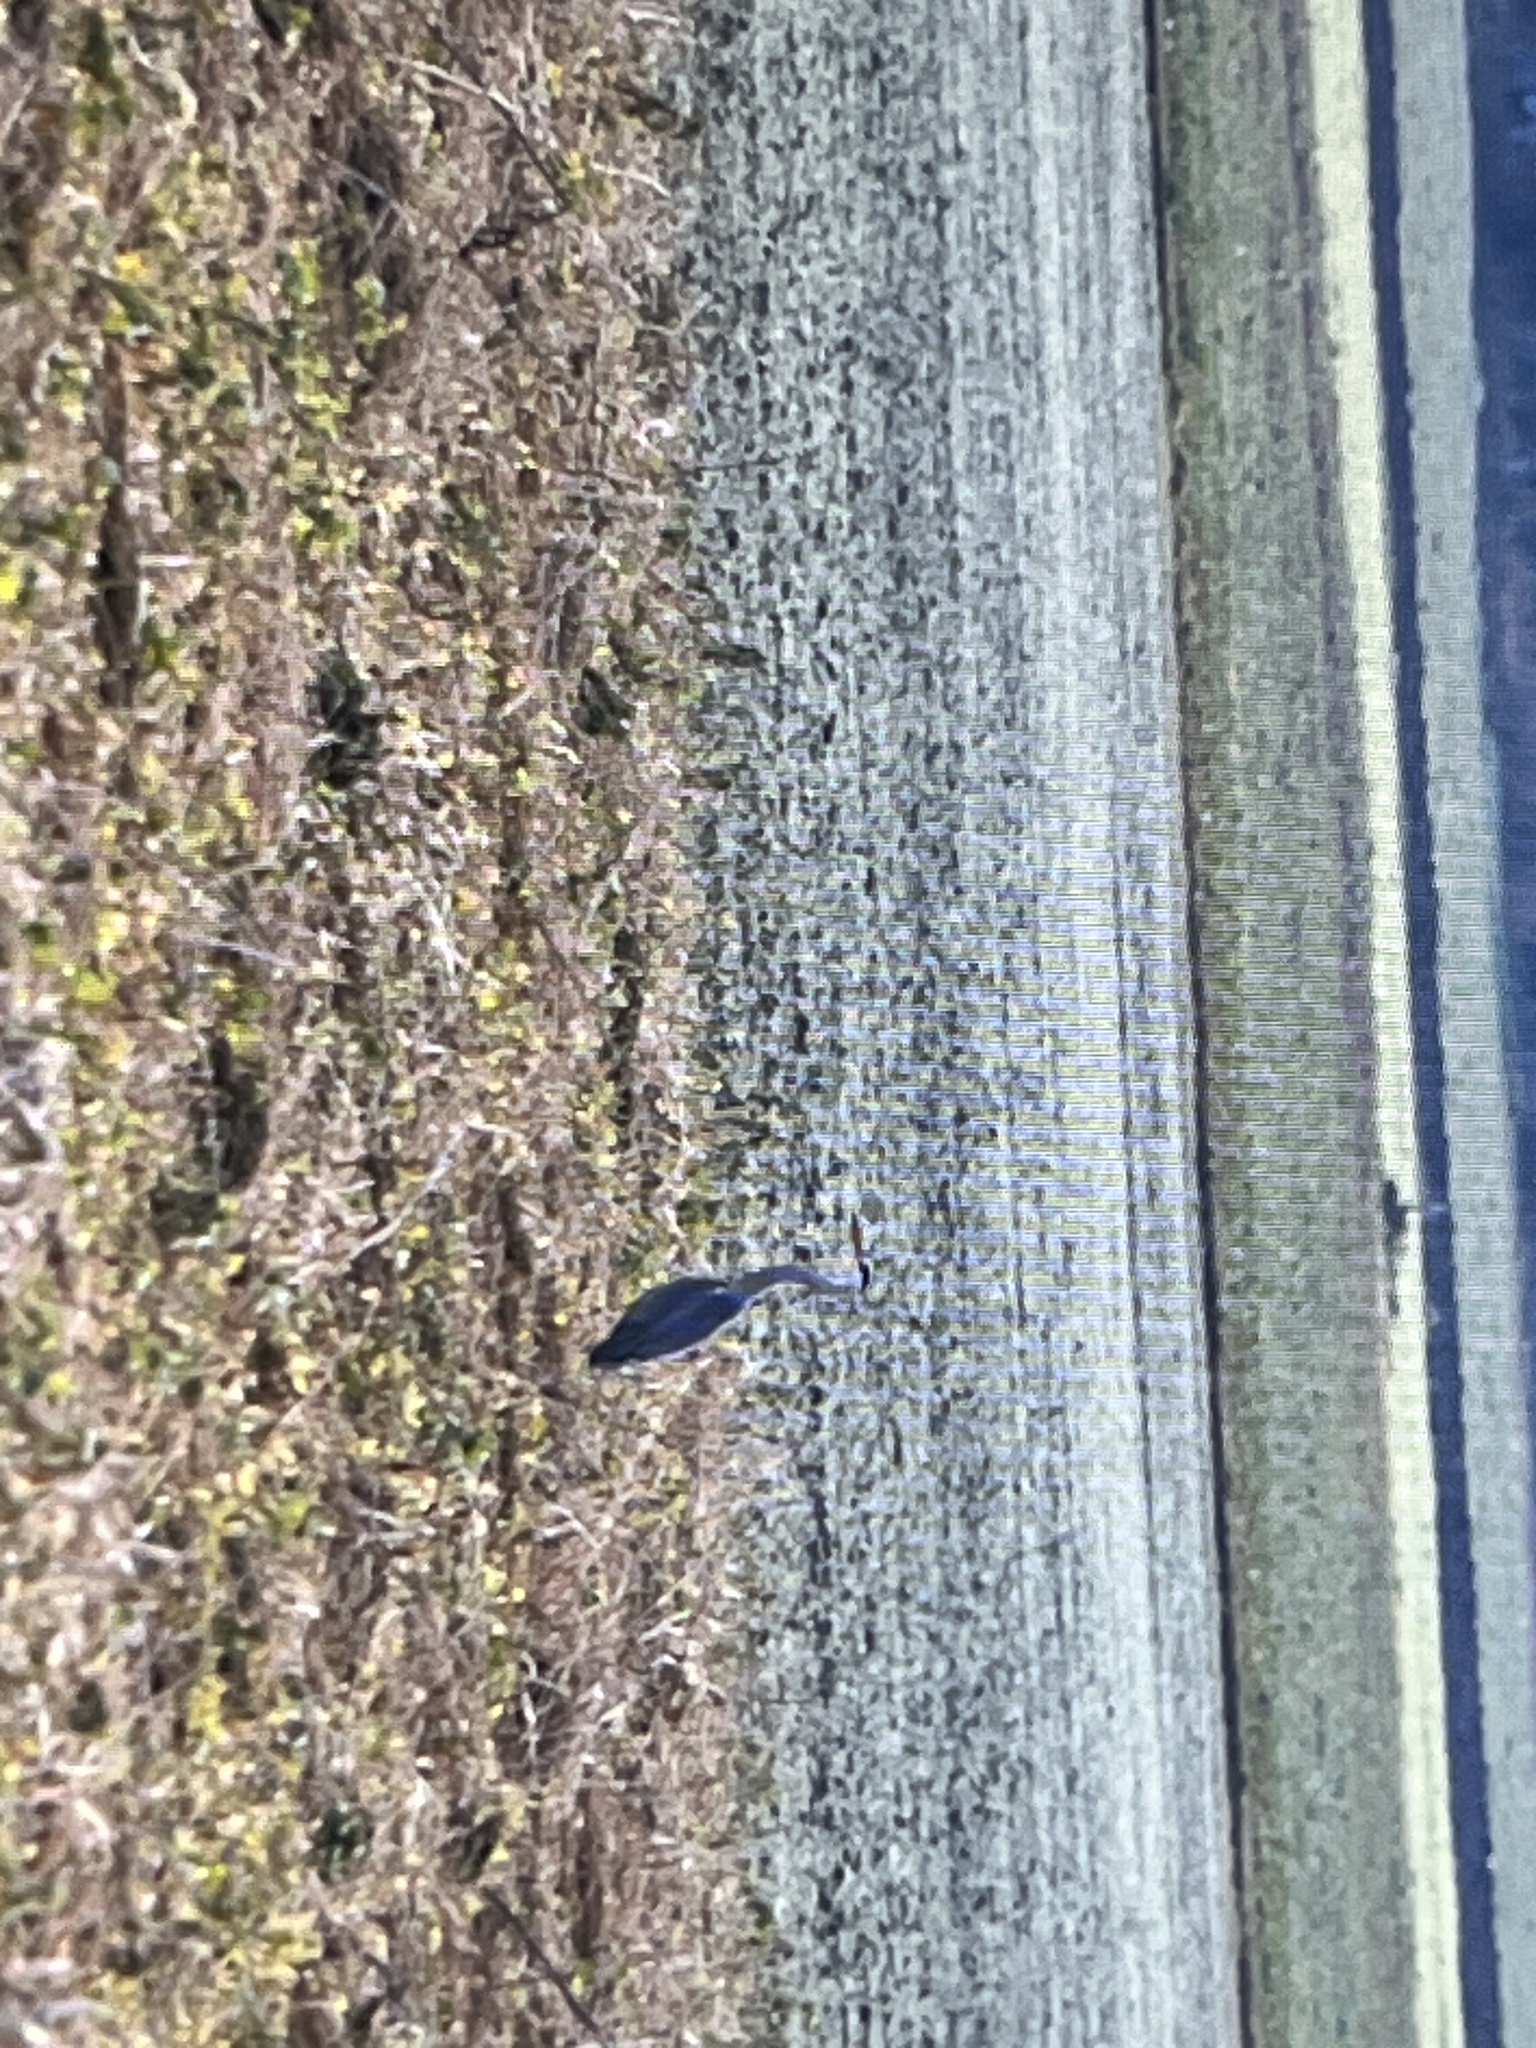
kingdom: Animalia
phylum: Chordata
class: Aves
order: Pelecaniformes
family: Ardeidae
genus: Ardea
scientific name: Ardea cinerea
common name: Grey heron
